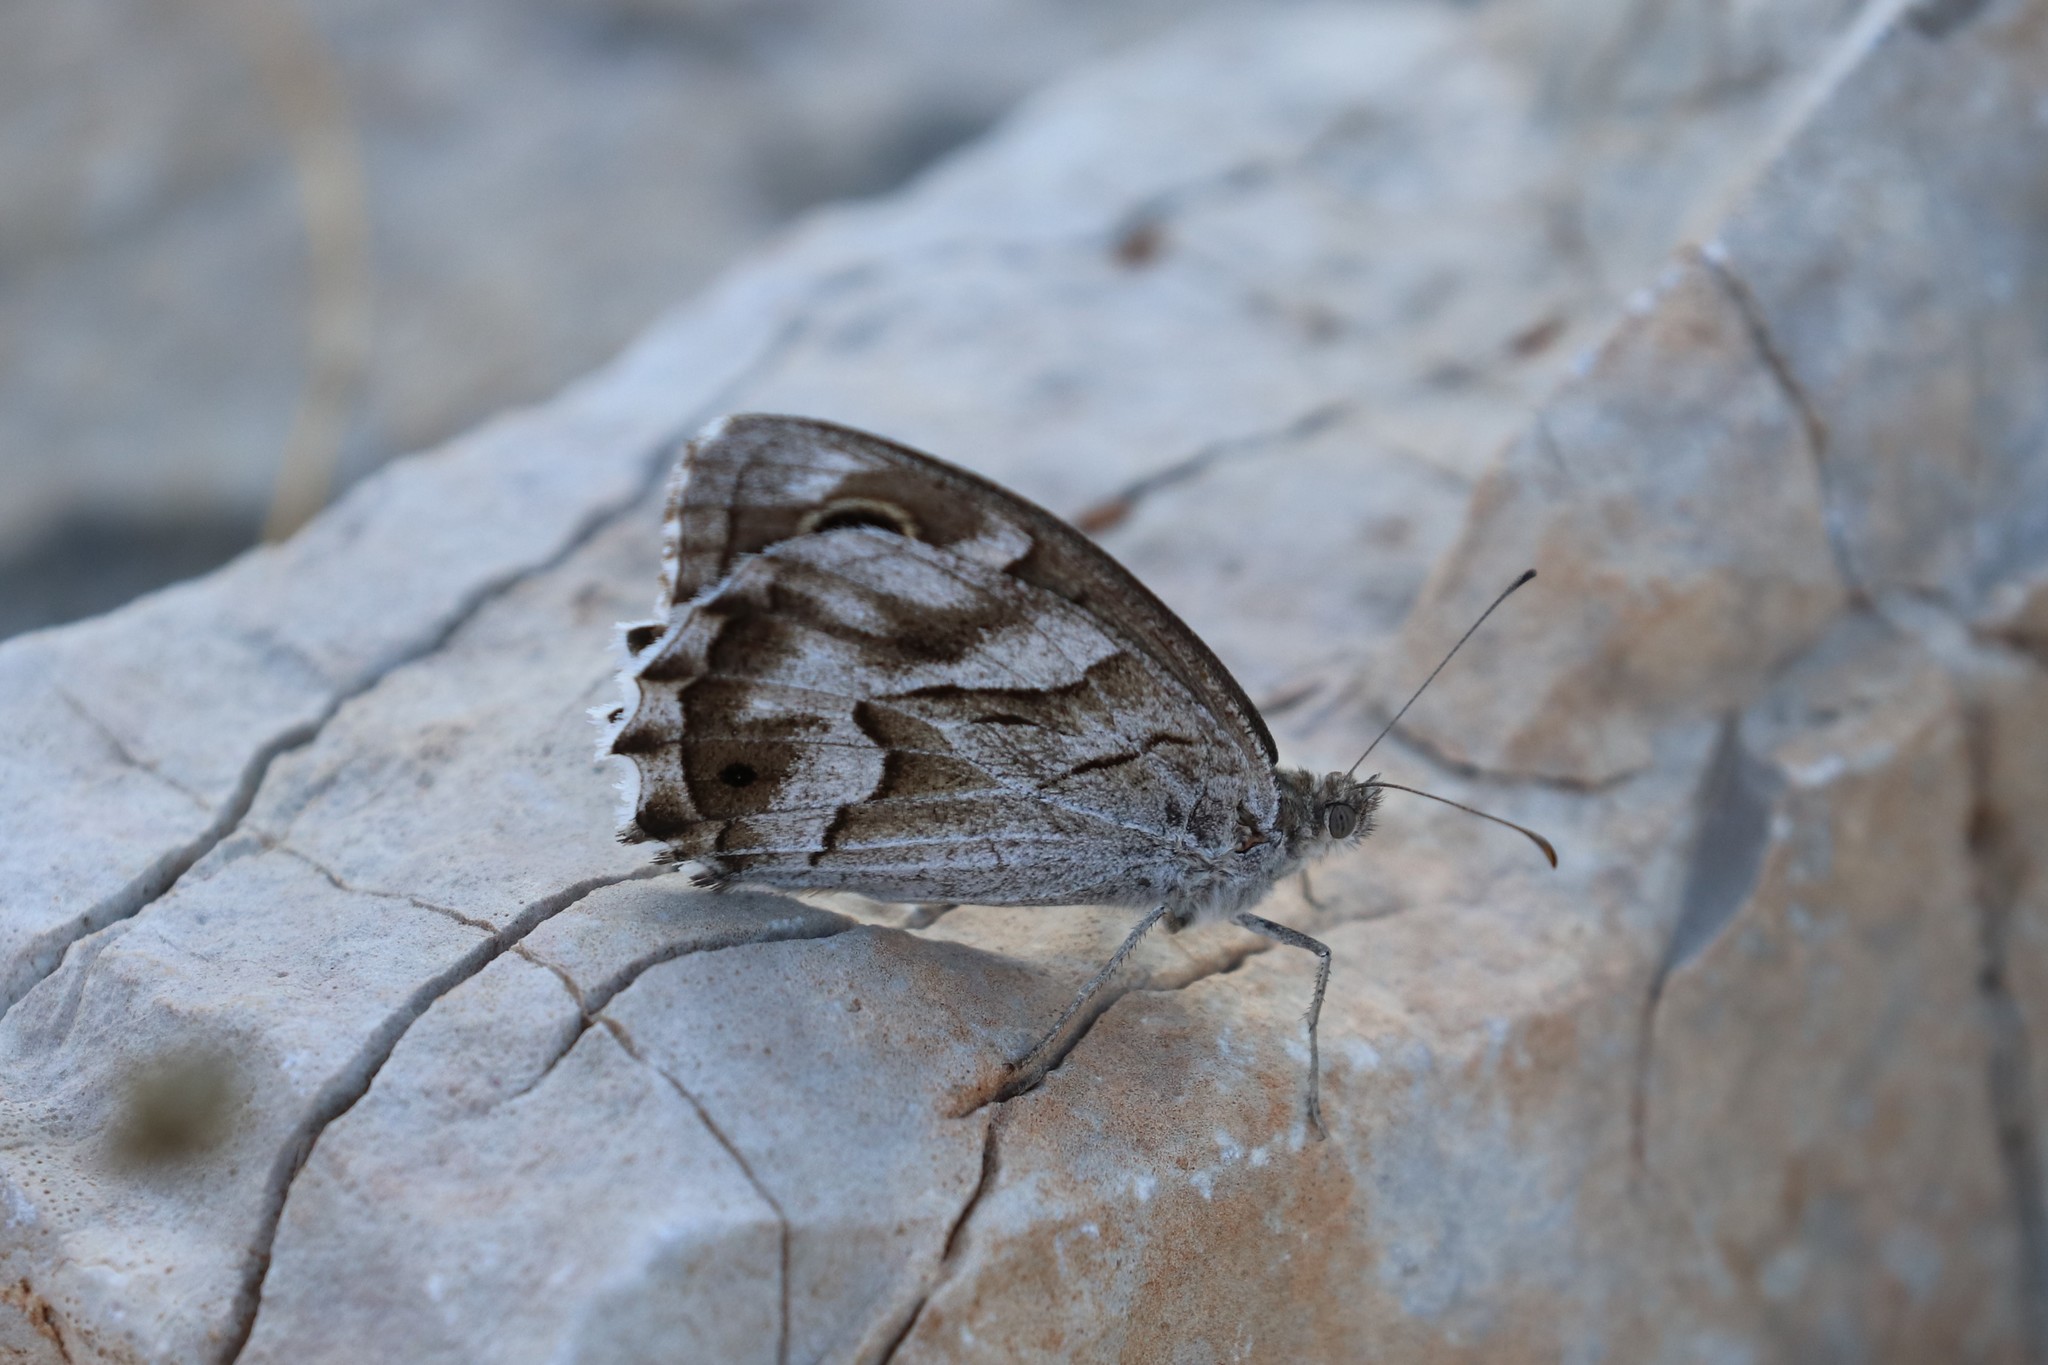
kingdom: Animalia
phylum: Arthropoda
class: Insecta
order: Lepidoptera
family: Nymphalidae
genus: Hipparchia
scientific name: Hipparchia fidia
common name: Striped grayling
